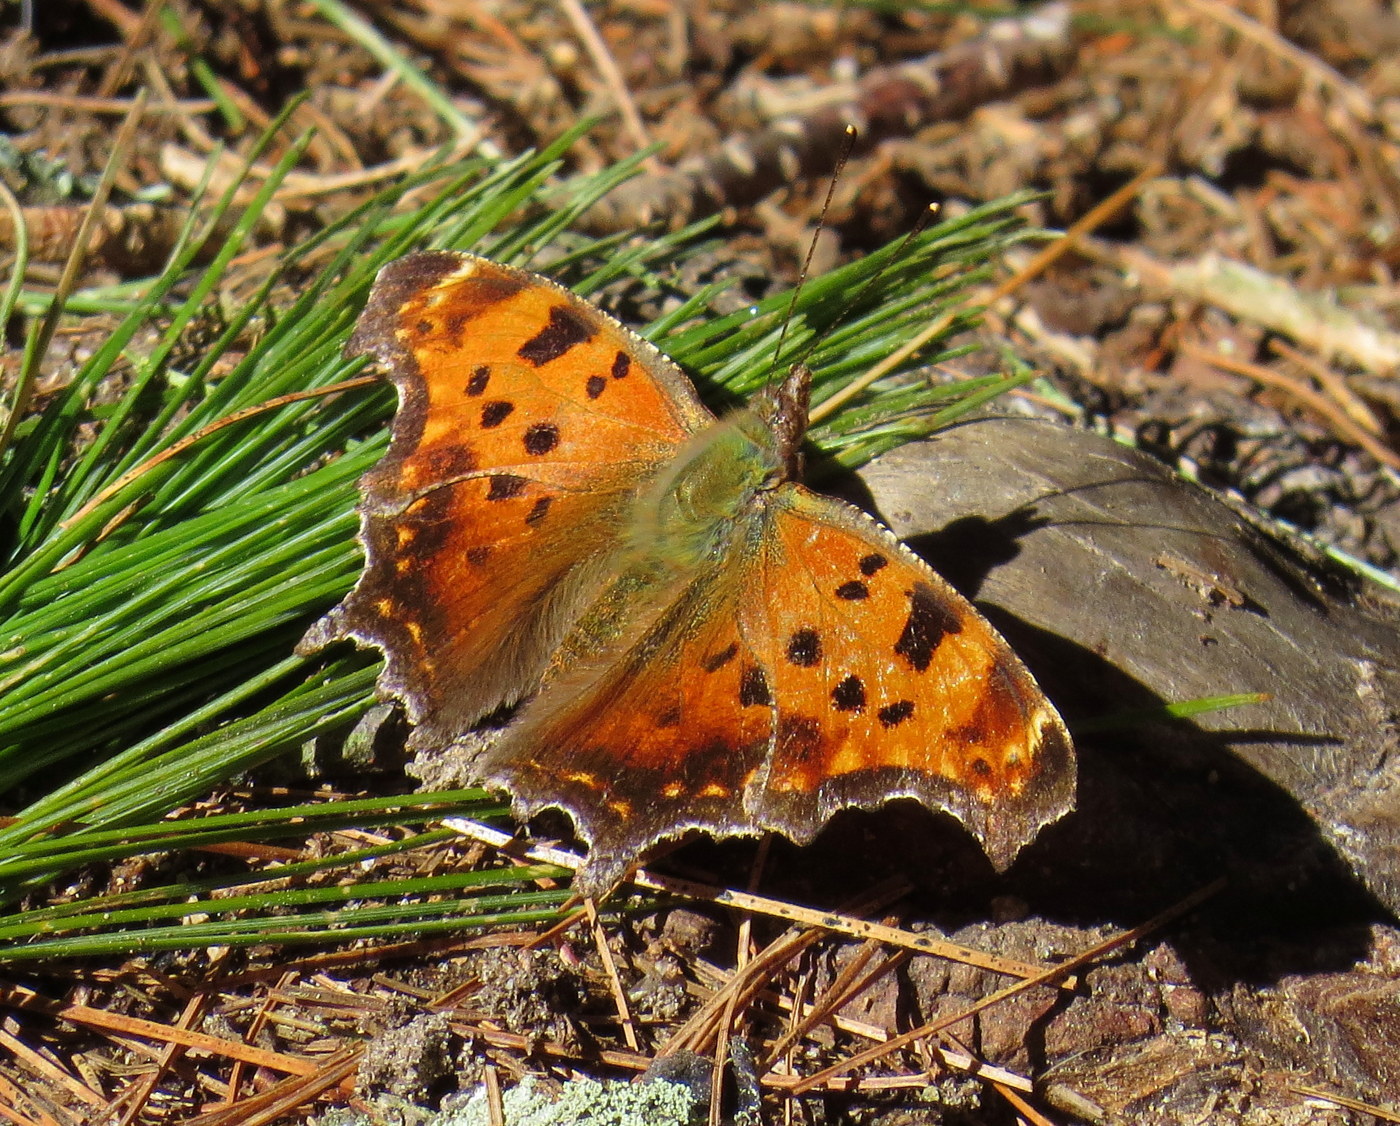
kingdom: Animalia
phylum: Arthropoda
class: Insecta
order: Lepidoptera
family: Nymphalidae
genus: Polygonia
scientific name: Polygonia comma
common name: Eastern comma
